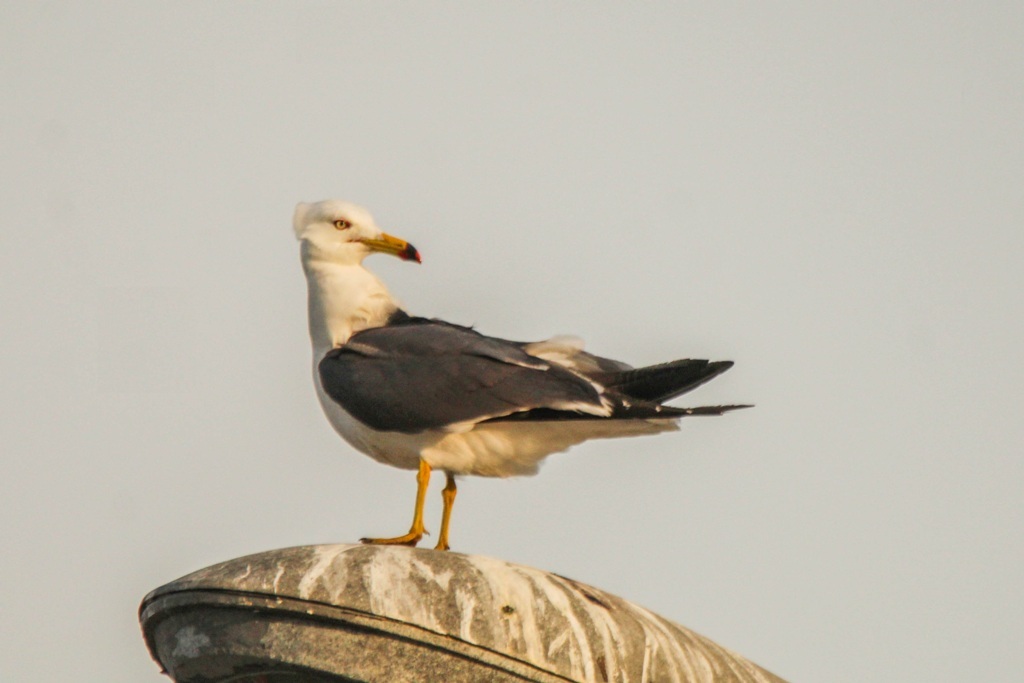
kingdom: Animalia
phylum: Chordata
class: Aves
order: Charadriiformes
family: Laridae
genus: Larus
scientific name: Larus crassirostris
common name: Black-tailed gull
